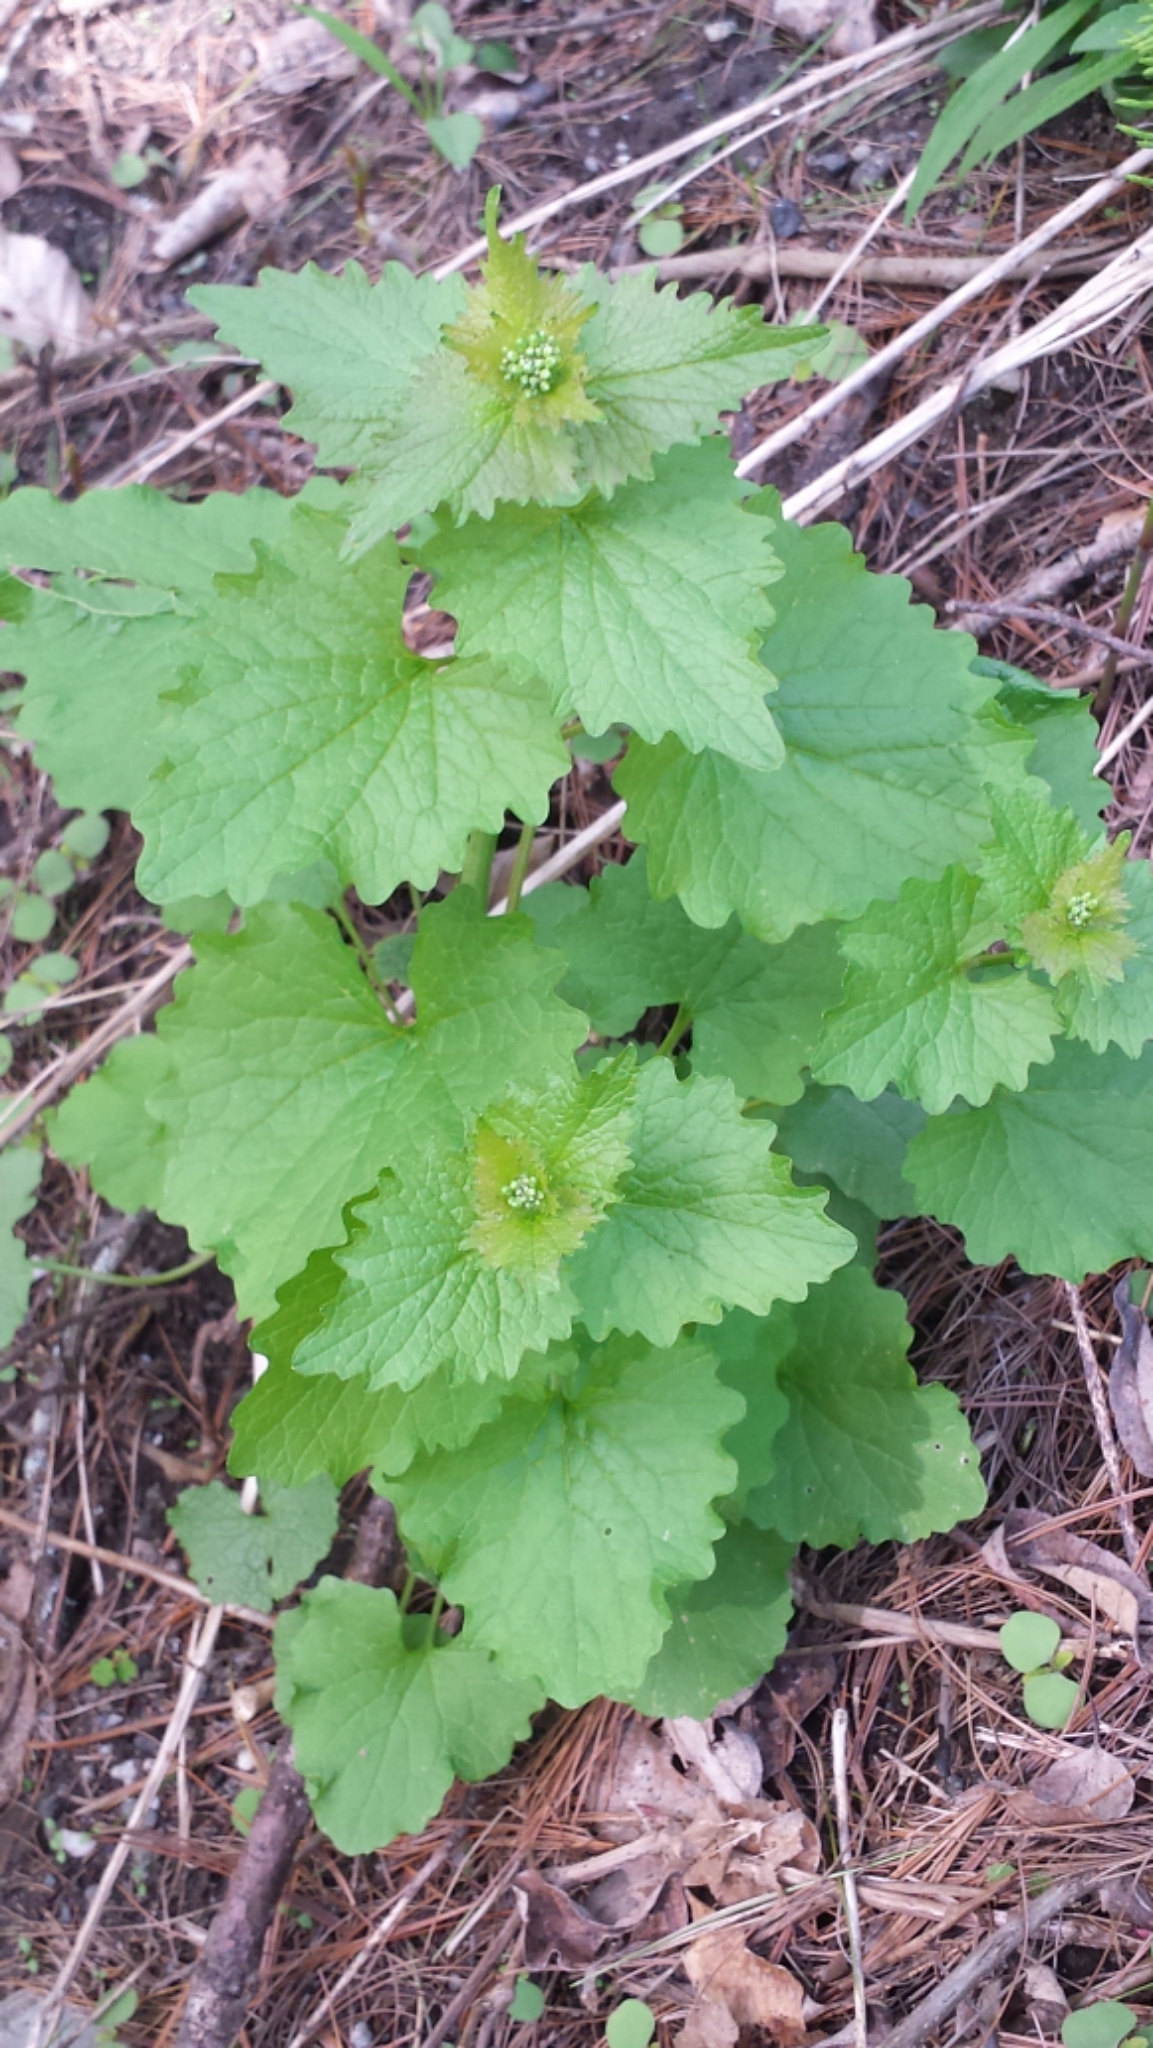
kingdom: Plantae
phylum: Tracheophyta
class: Magnoliopsida
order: Brassicales
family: Brassicaceae
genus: Alliaria
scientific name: Alliaria petiolata
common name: Garlic mustard
